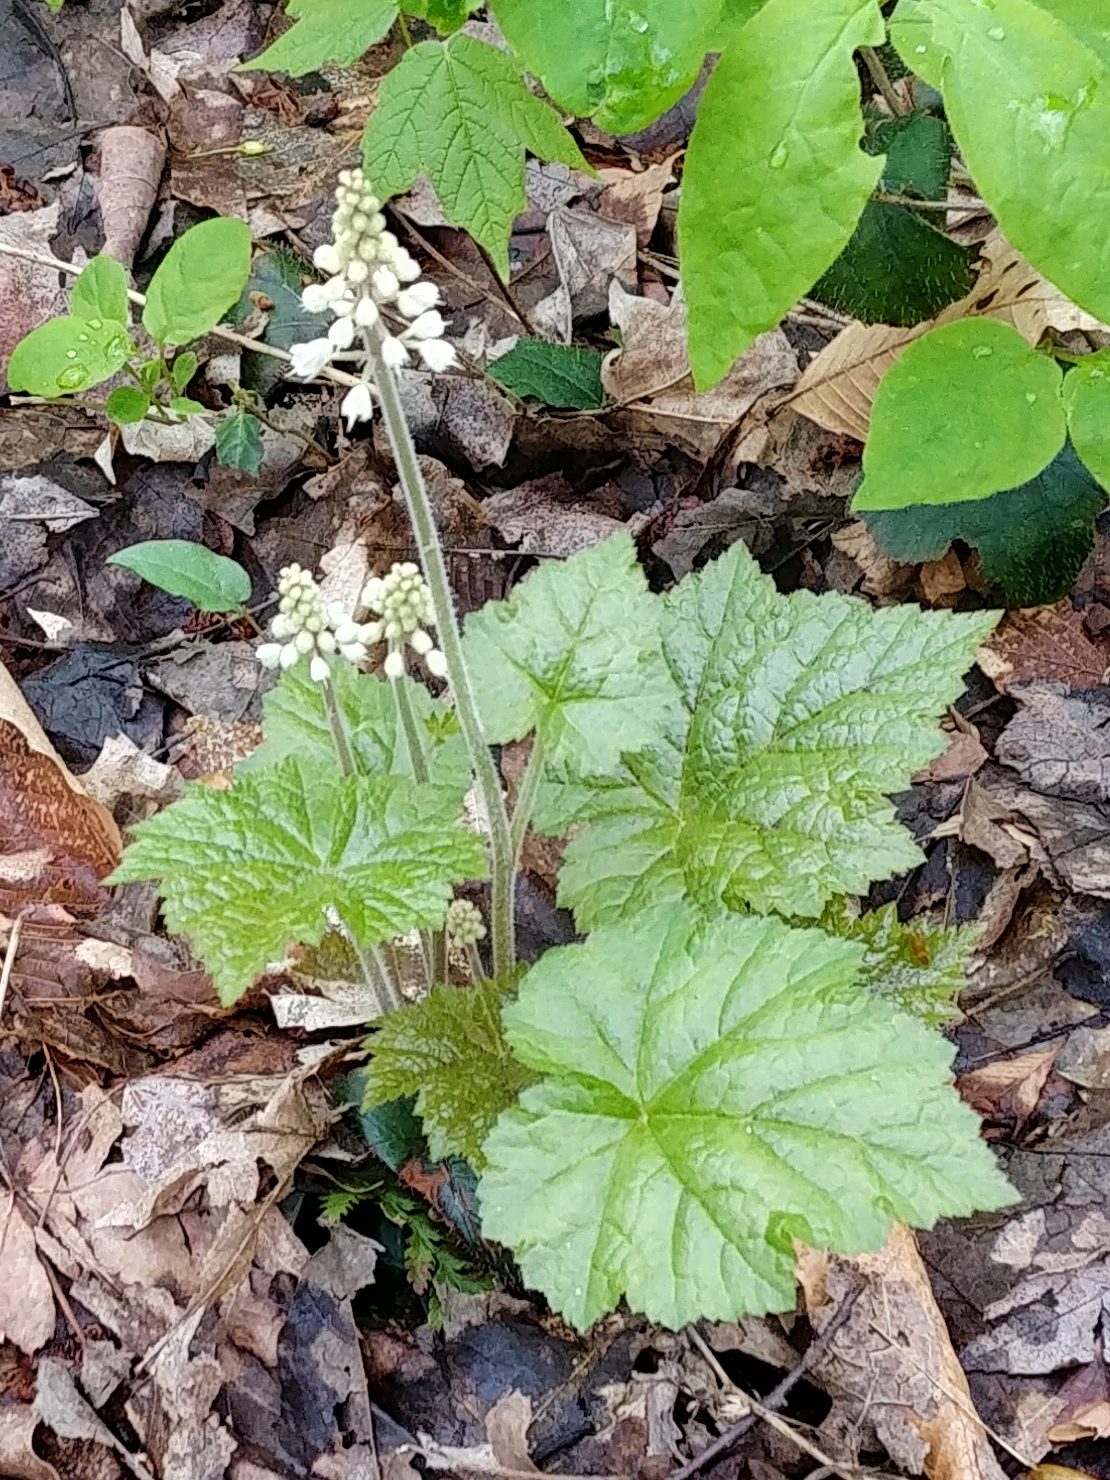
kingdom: Plantae
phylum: Tracheophyta
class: Magnoliopsida
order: Saxifragales
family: Saxifragaceae
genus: Tiarella
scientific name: Tiarella stolonifera
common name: Stoloniferous foamflower
